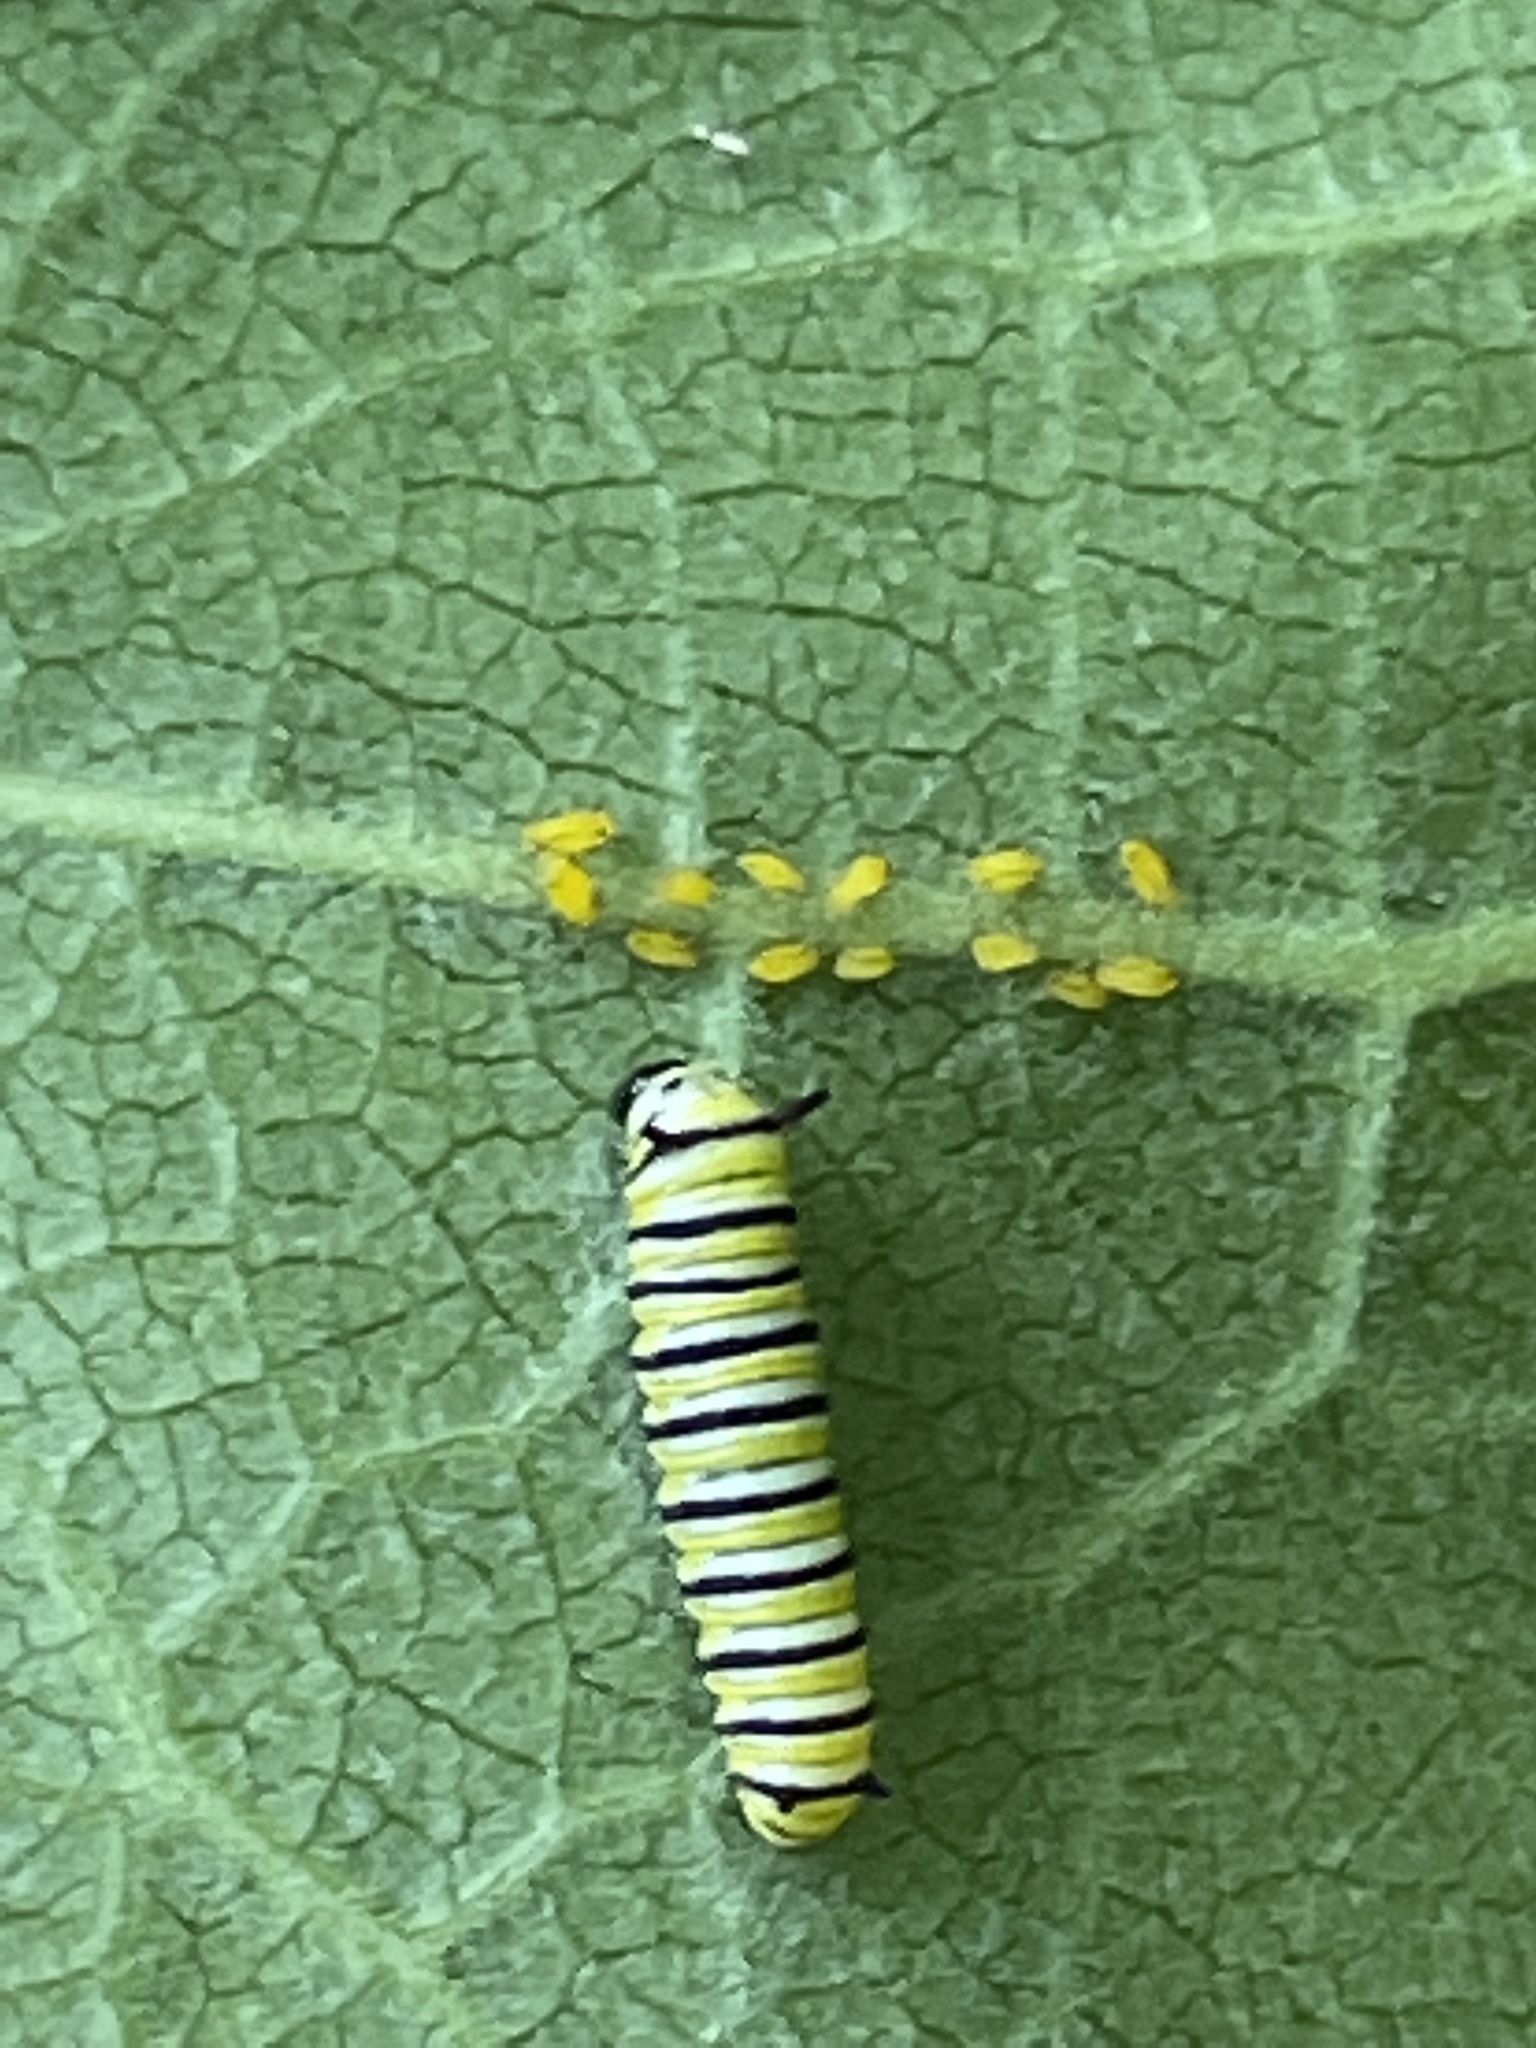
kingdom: Animalia
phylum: Arthropoda
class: Insecta
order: Lepidoptera
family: Nymphalidae
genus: Danaus
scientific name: Danaus plexippus
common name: Monarch
